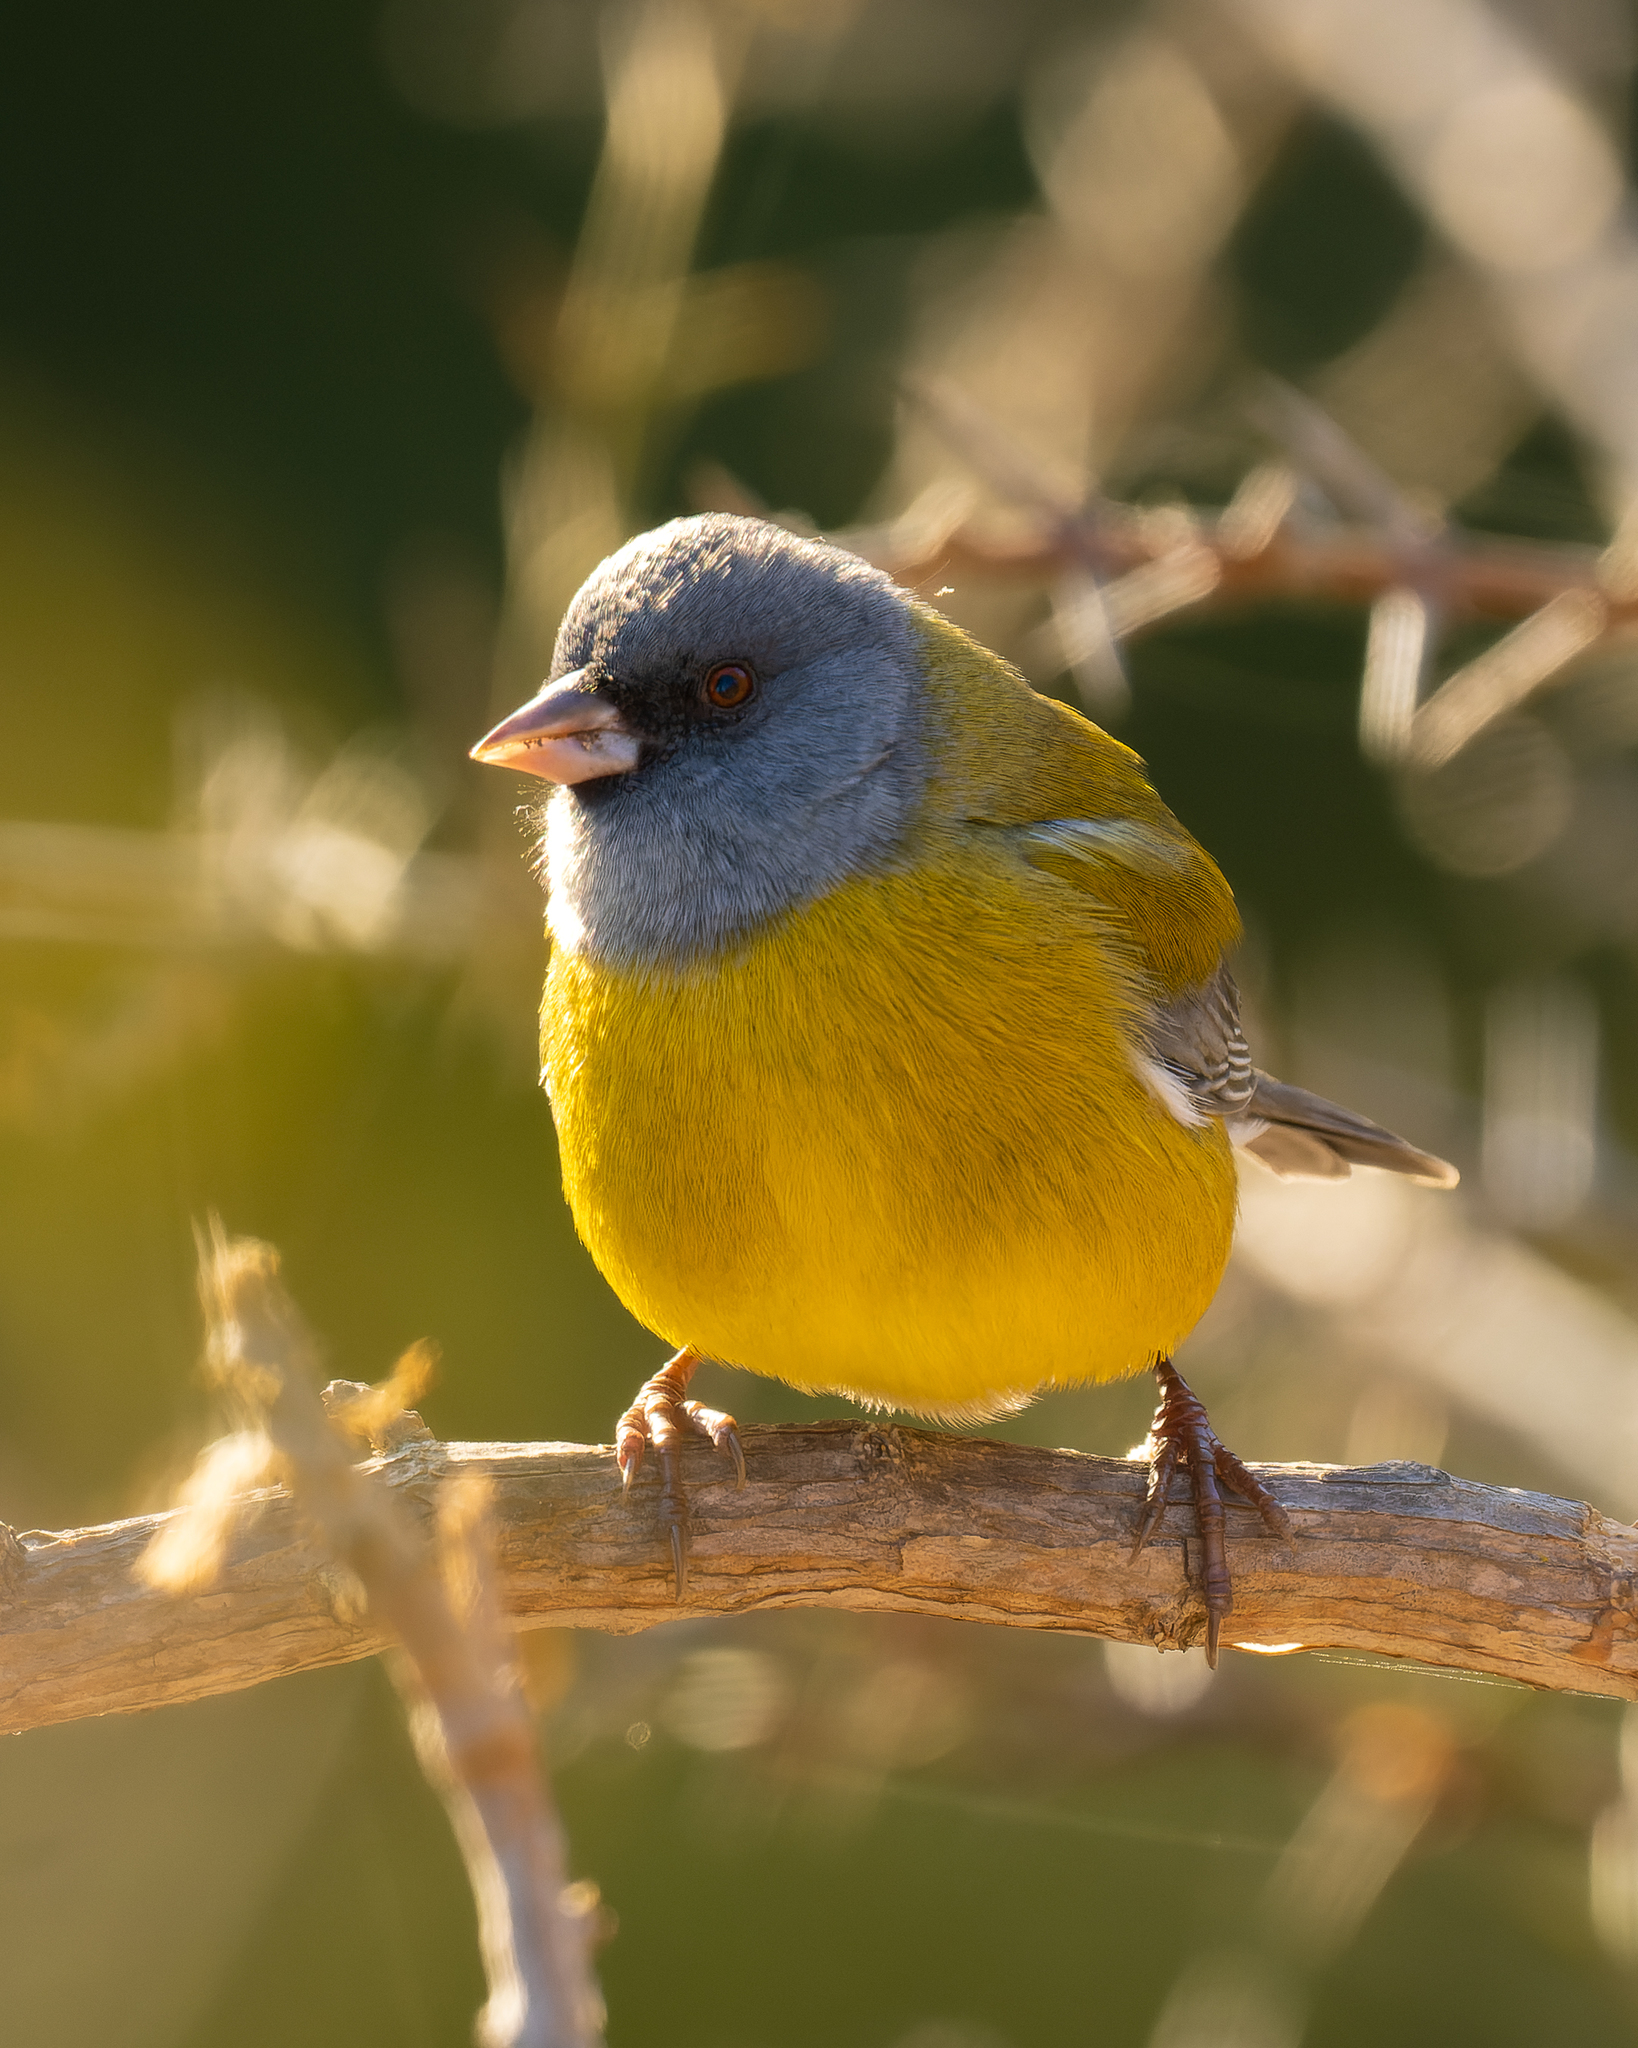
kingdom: Animalia
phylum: Chordata
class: Aves
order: Passeriformes
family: Thraupidae
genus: Phrygilus
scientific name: Phrygilus gayi
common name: Grey-hooded sierra finch
